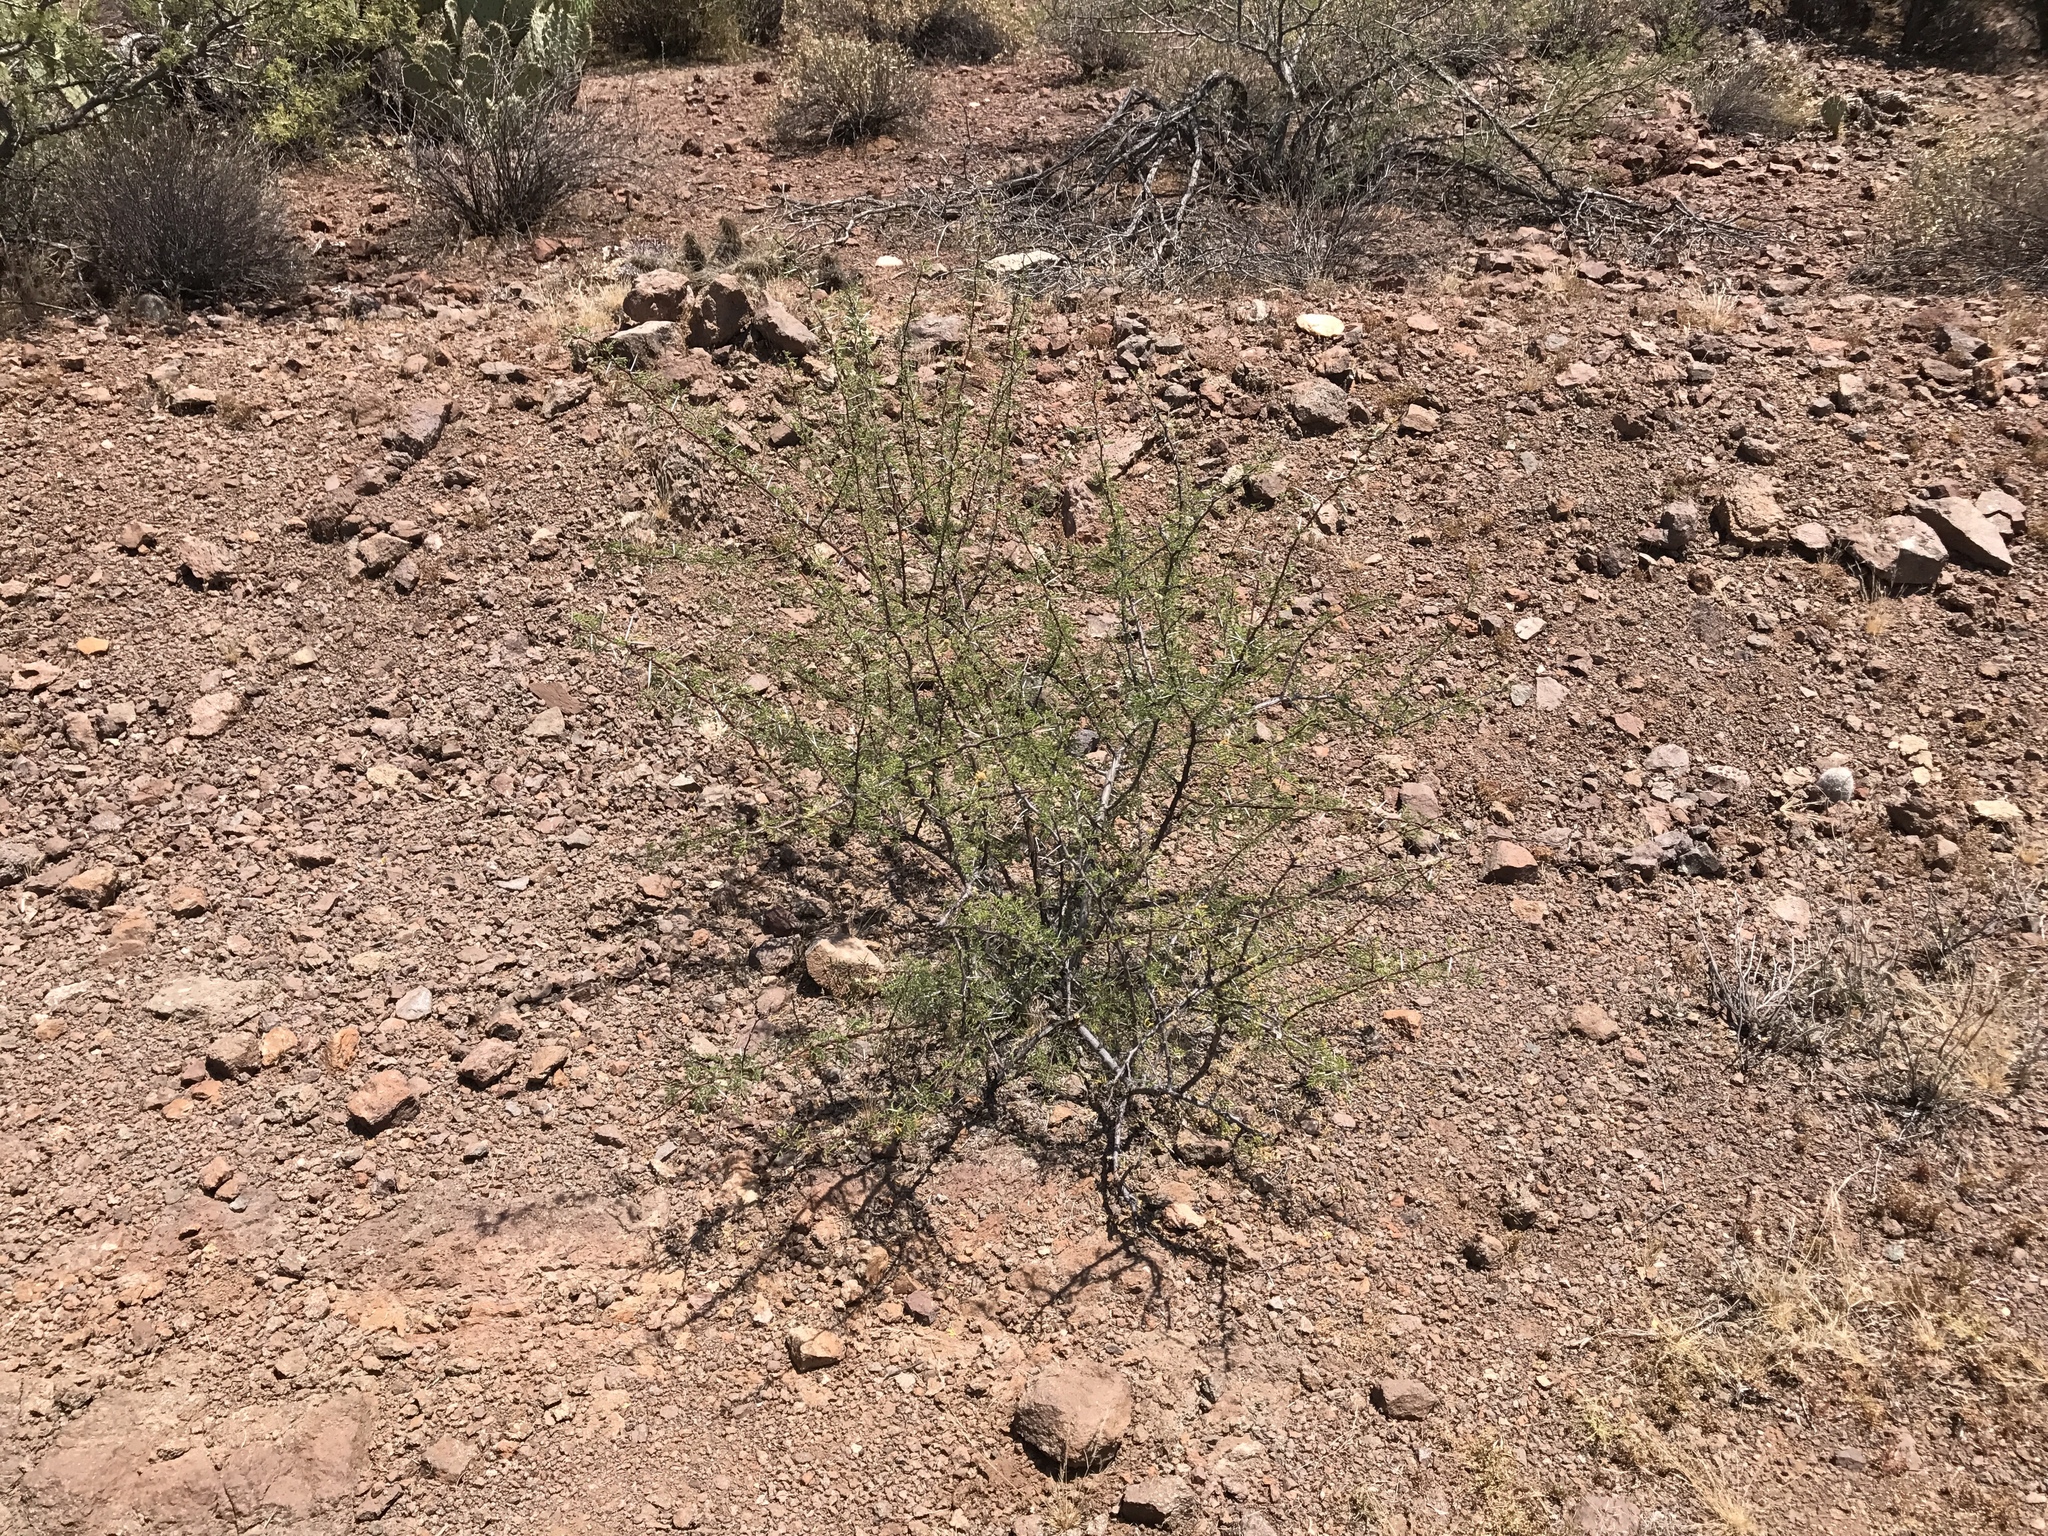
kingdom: Plantae
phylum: Tracheophyta
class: Magnoliopsida
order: Fabales
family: Fabaceae
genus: Vachellia
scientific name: Vachellia constricta
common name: Mescat acacia
